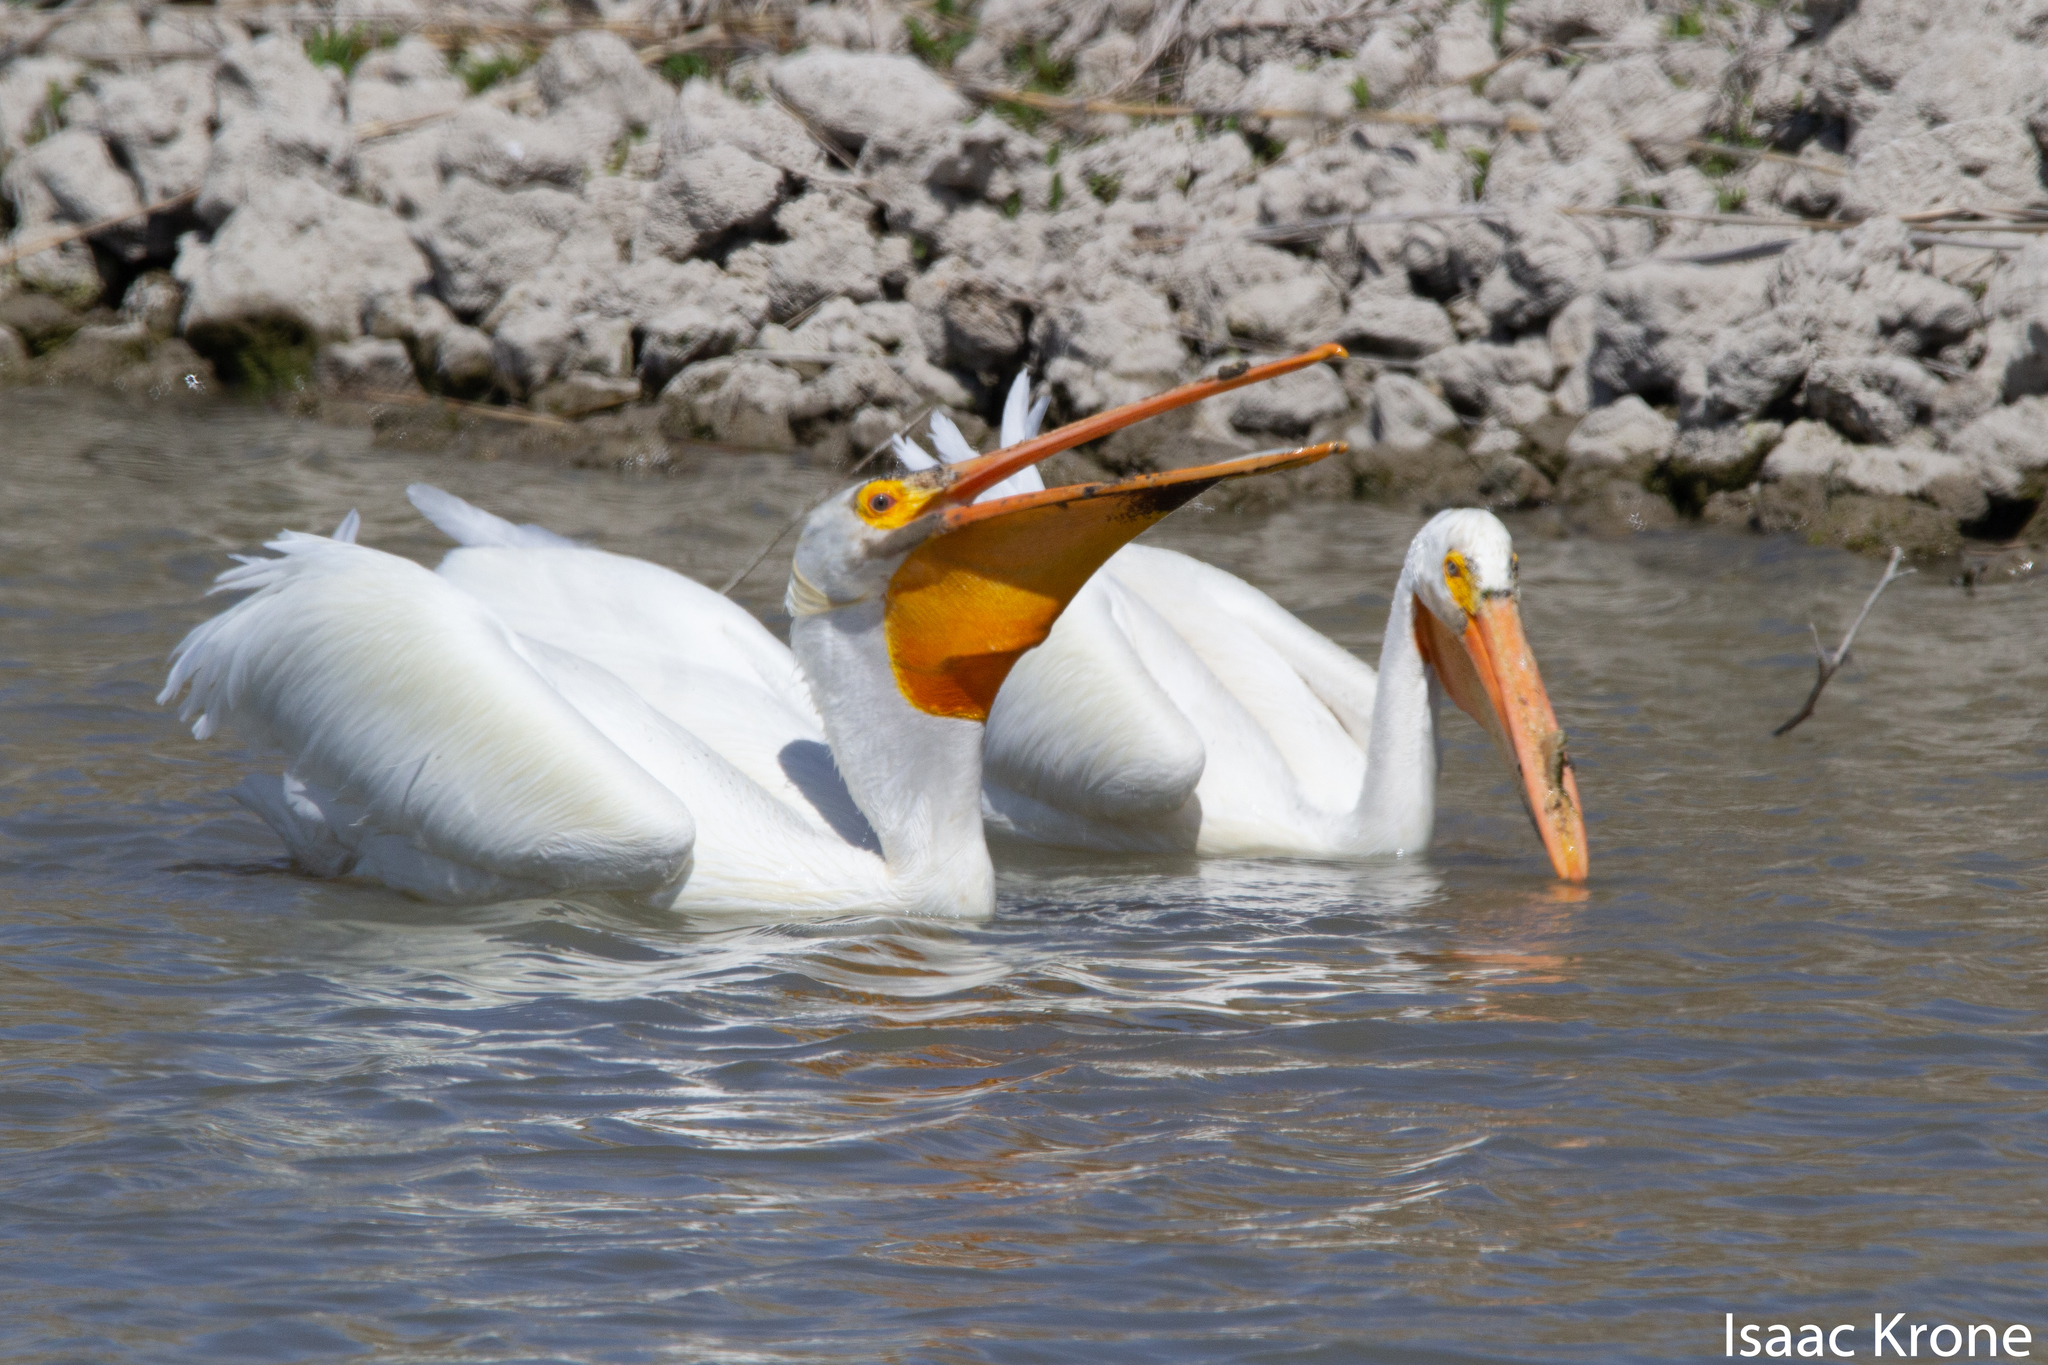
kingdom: Animalia
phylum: Chordata
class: Aves
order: Pelecaniformes
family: Pelecanidae
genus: Pelecanus
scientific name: Pelecanus erythrorhynchos
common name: American white pelican
